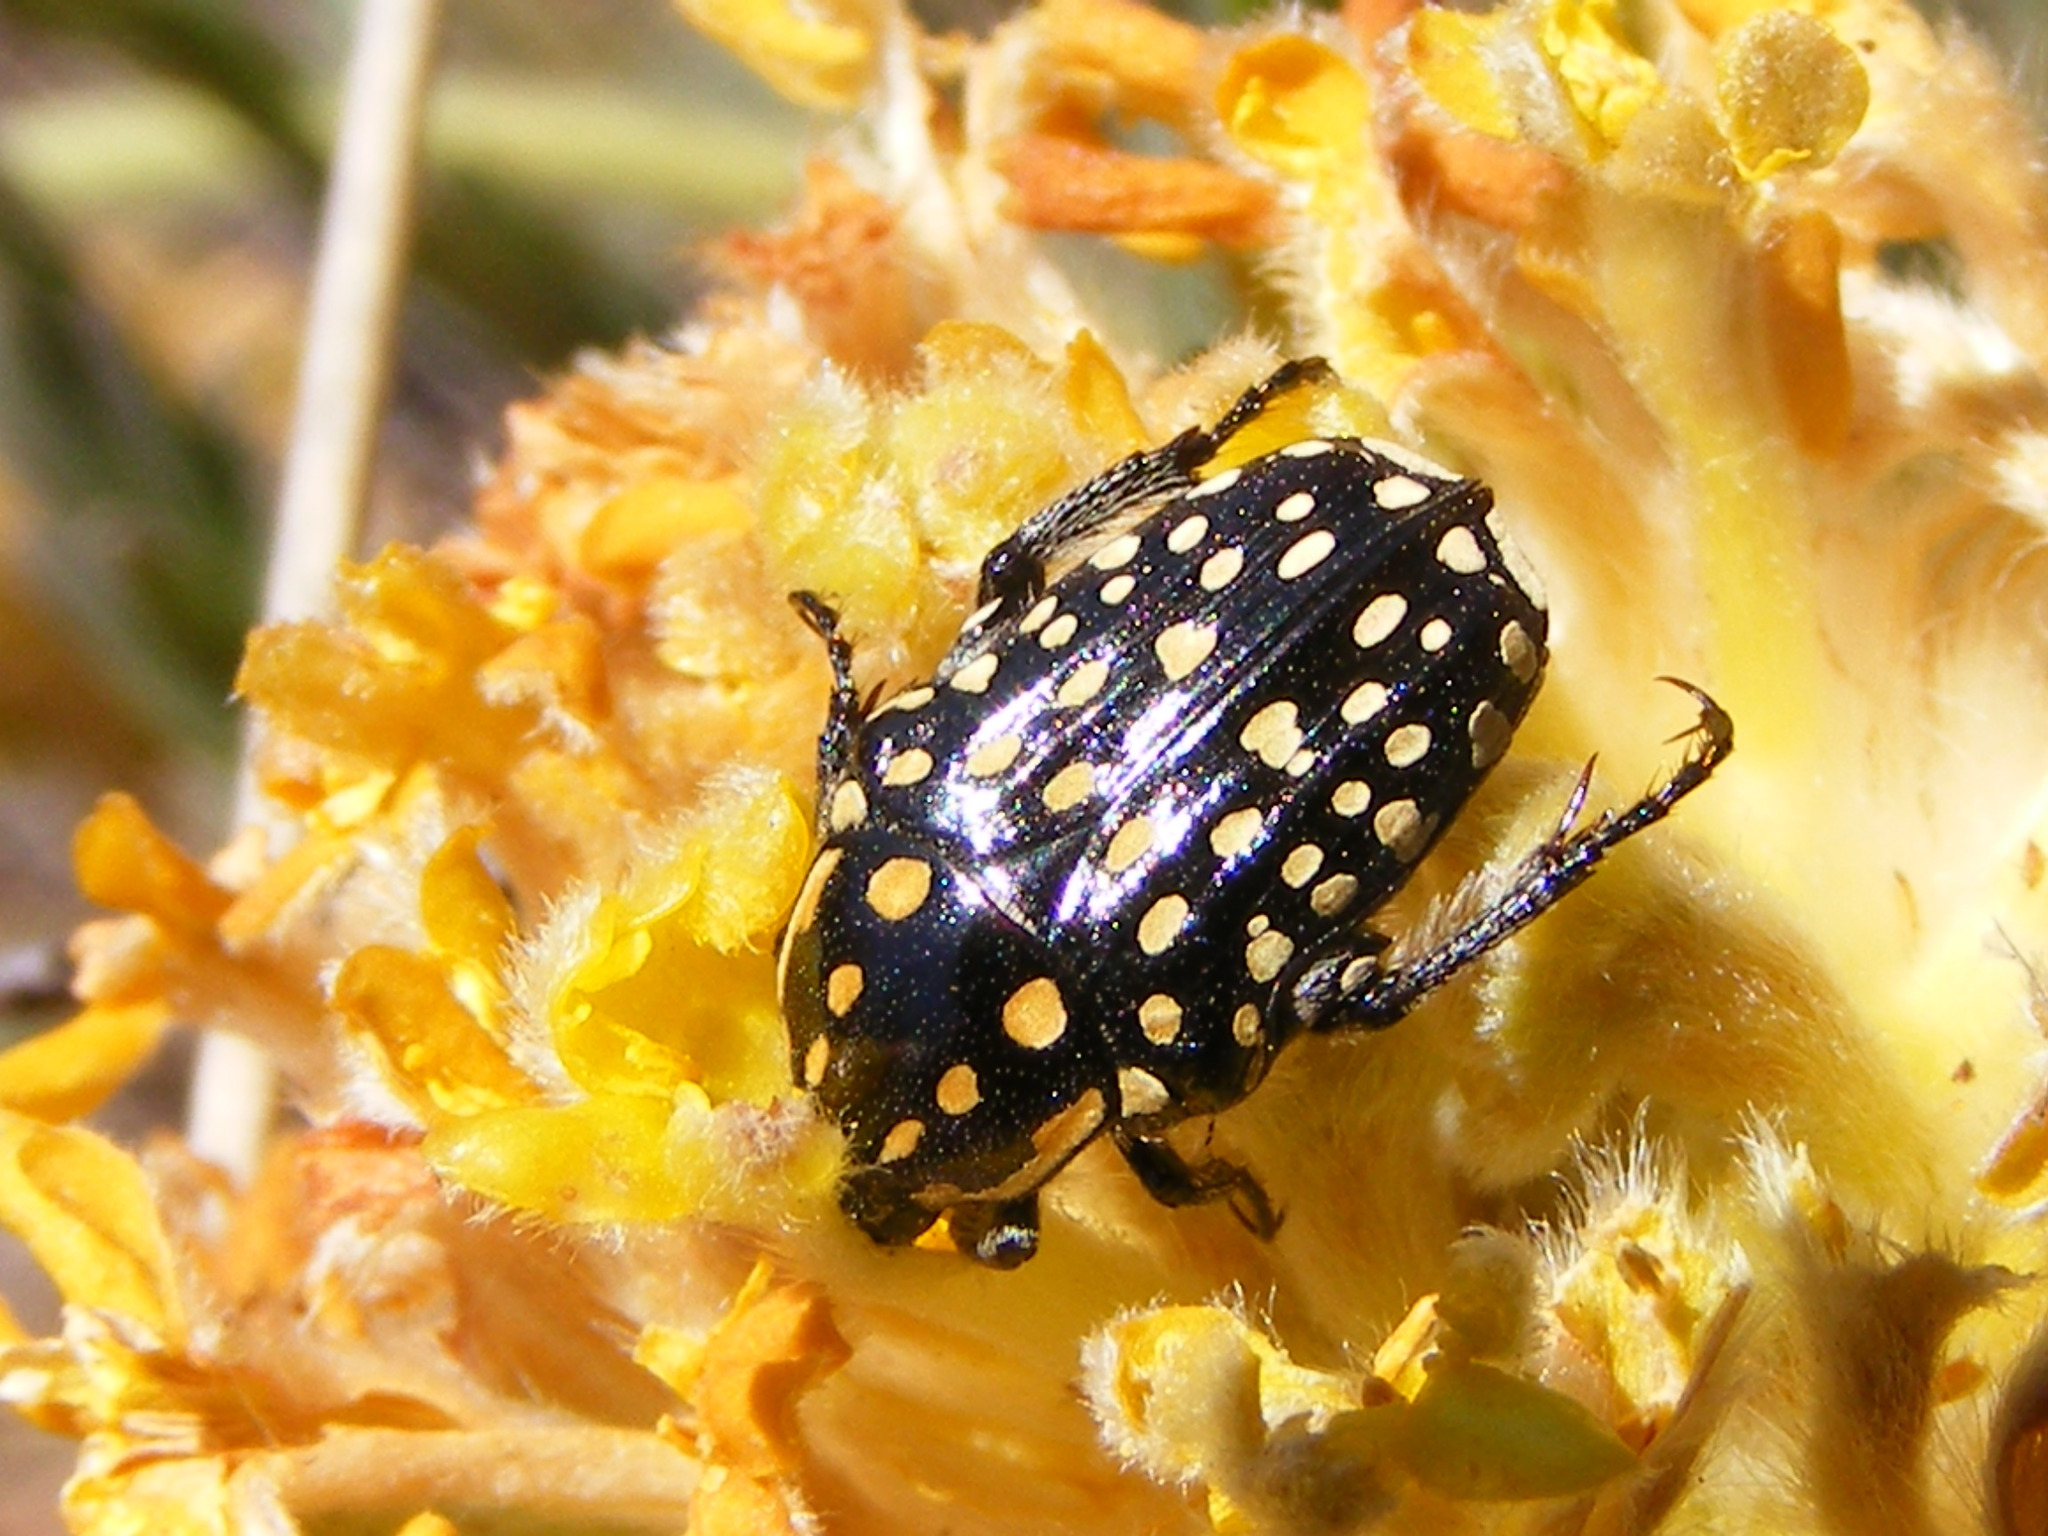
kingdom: Animalia
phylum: Arthropoda
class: Insecta
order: Coleoptera
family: Scarabaeidae
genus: Cyrtothyrea
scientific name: Cyrtothyrea testaceoguttata
